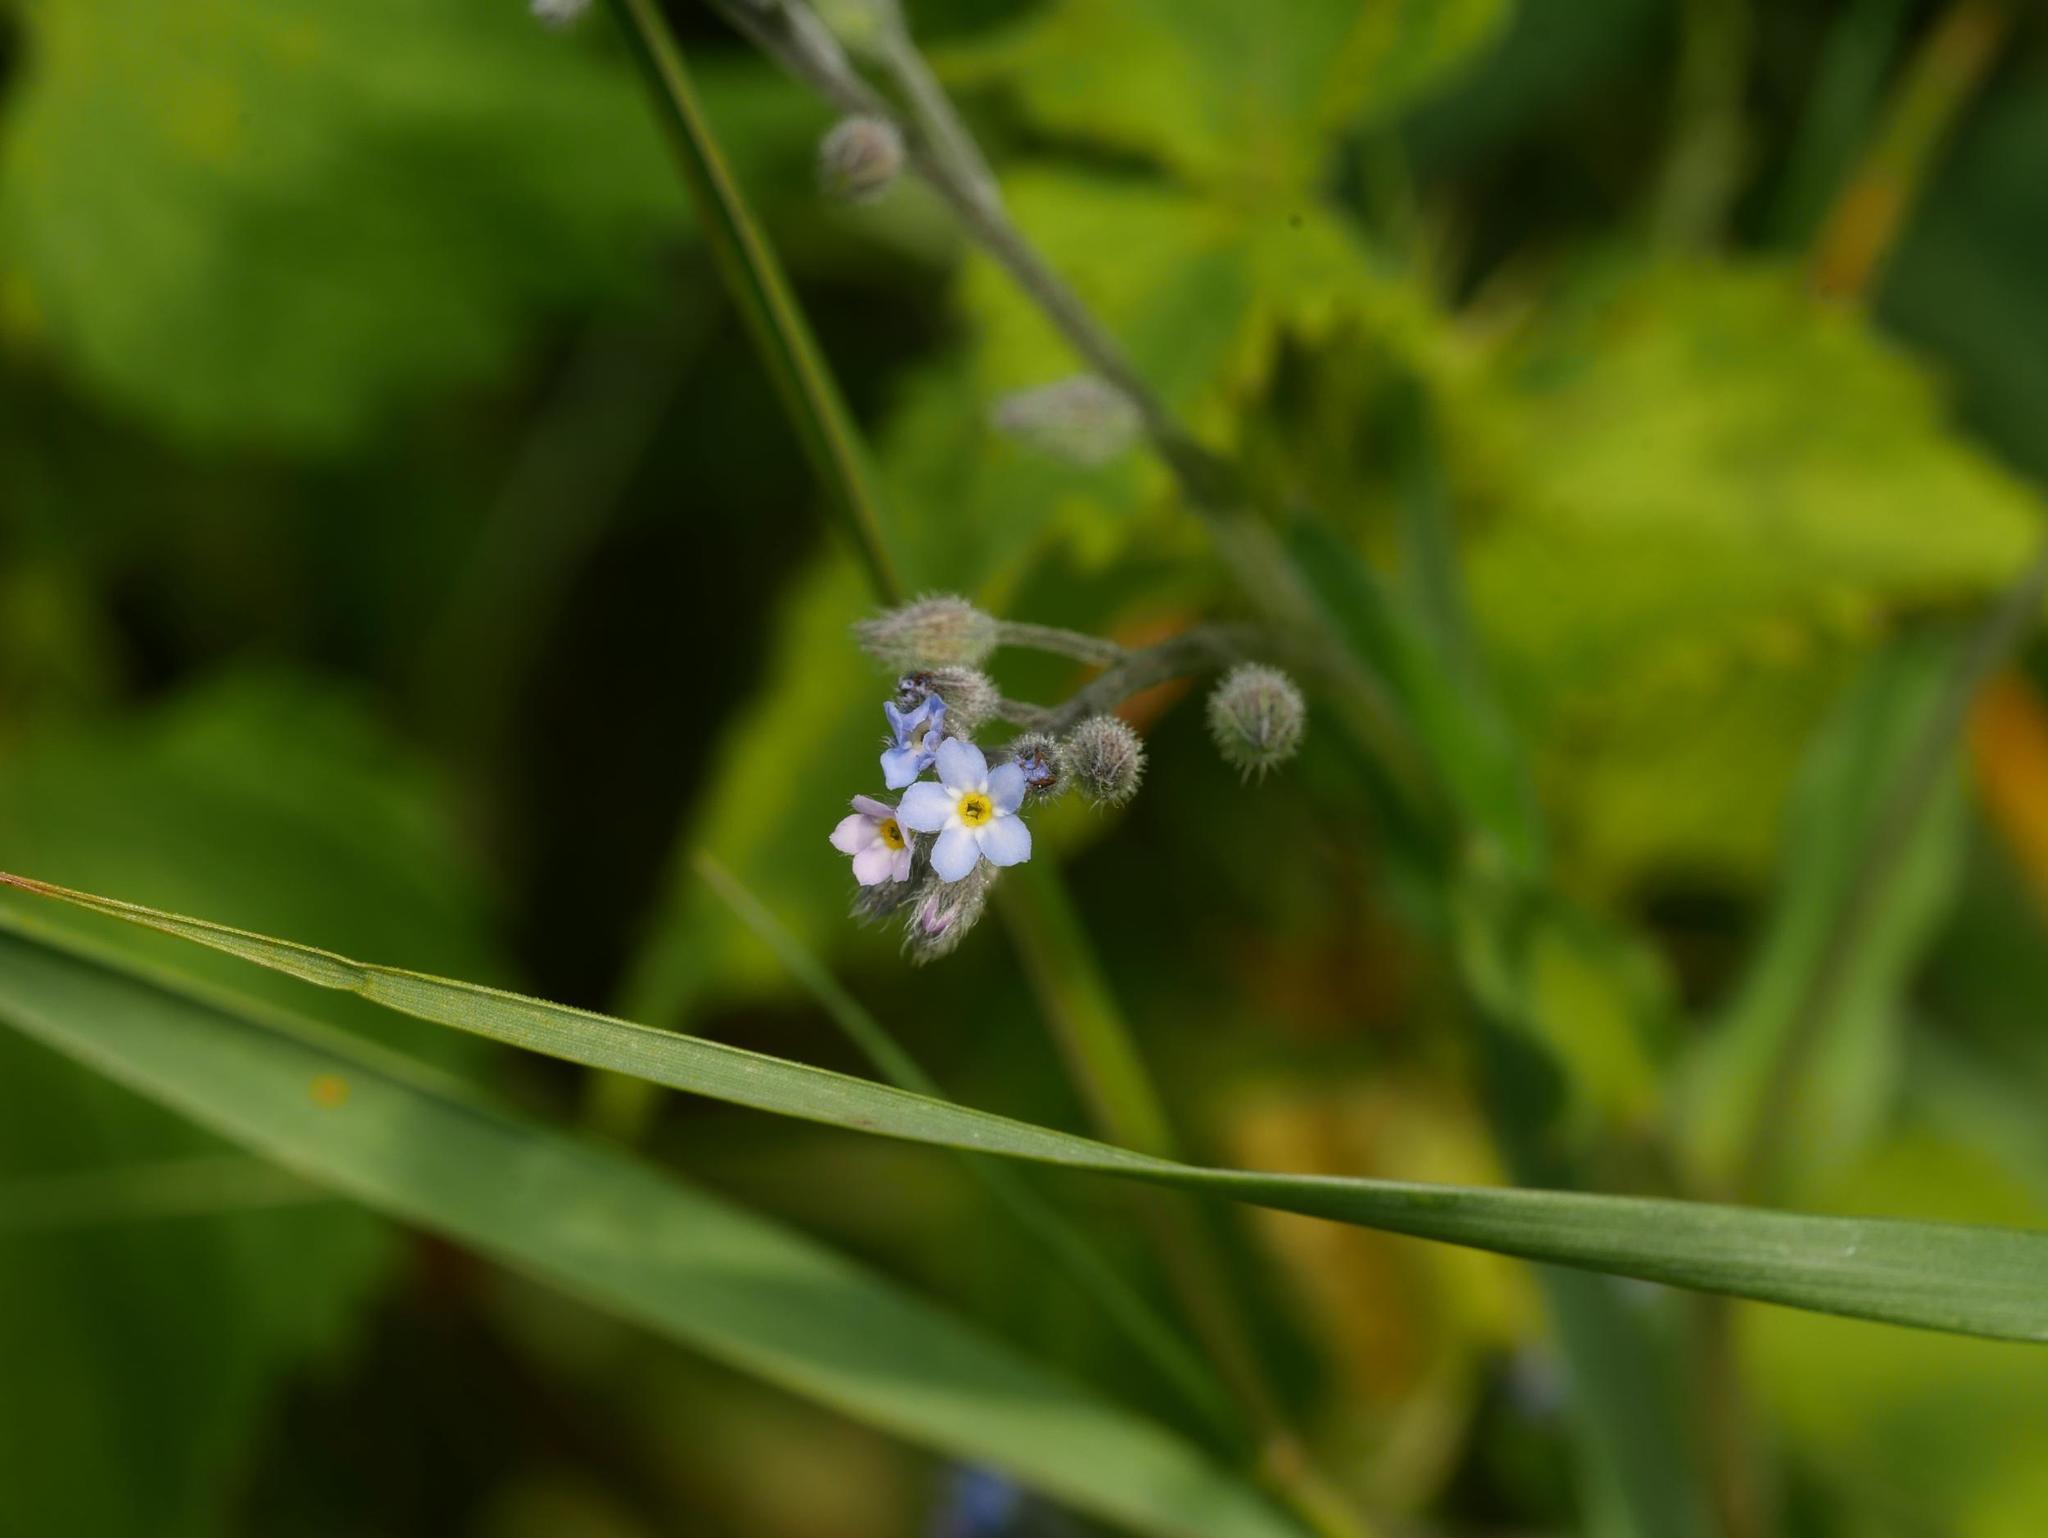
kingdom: Plantae
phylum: Tracheophyta
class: Magnoliopsida
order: Boraginales
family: Boraginaceae
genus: Myosotis
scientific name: Myosotis arvensis
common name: Field forget-me-not
